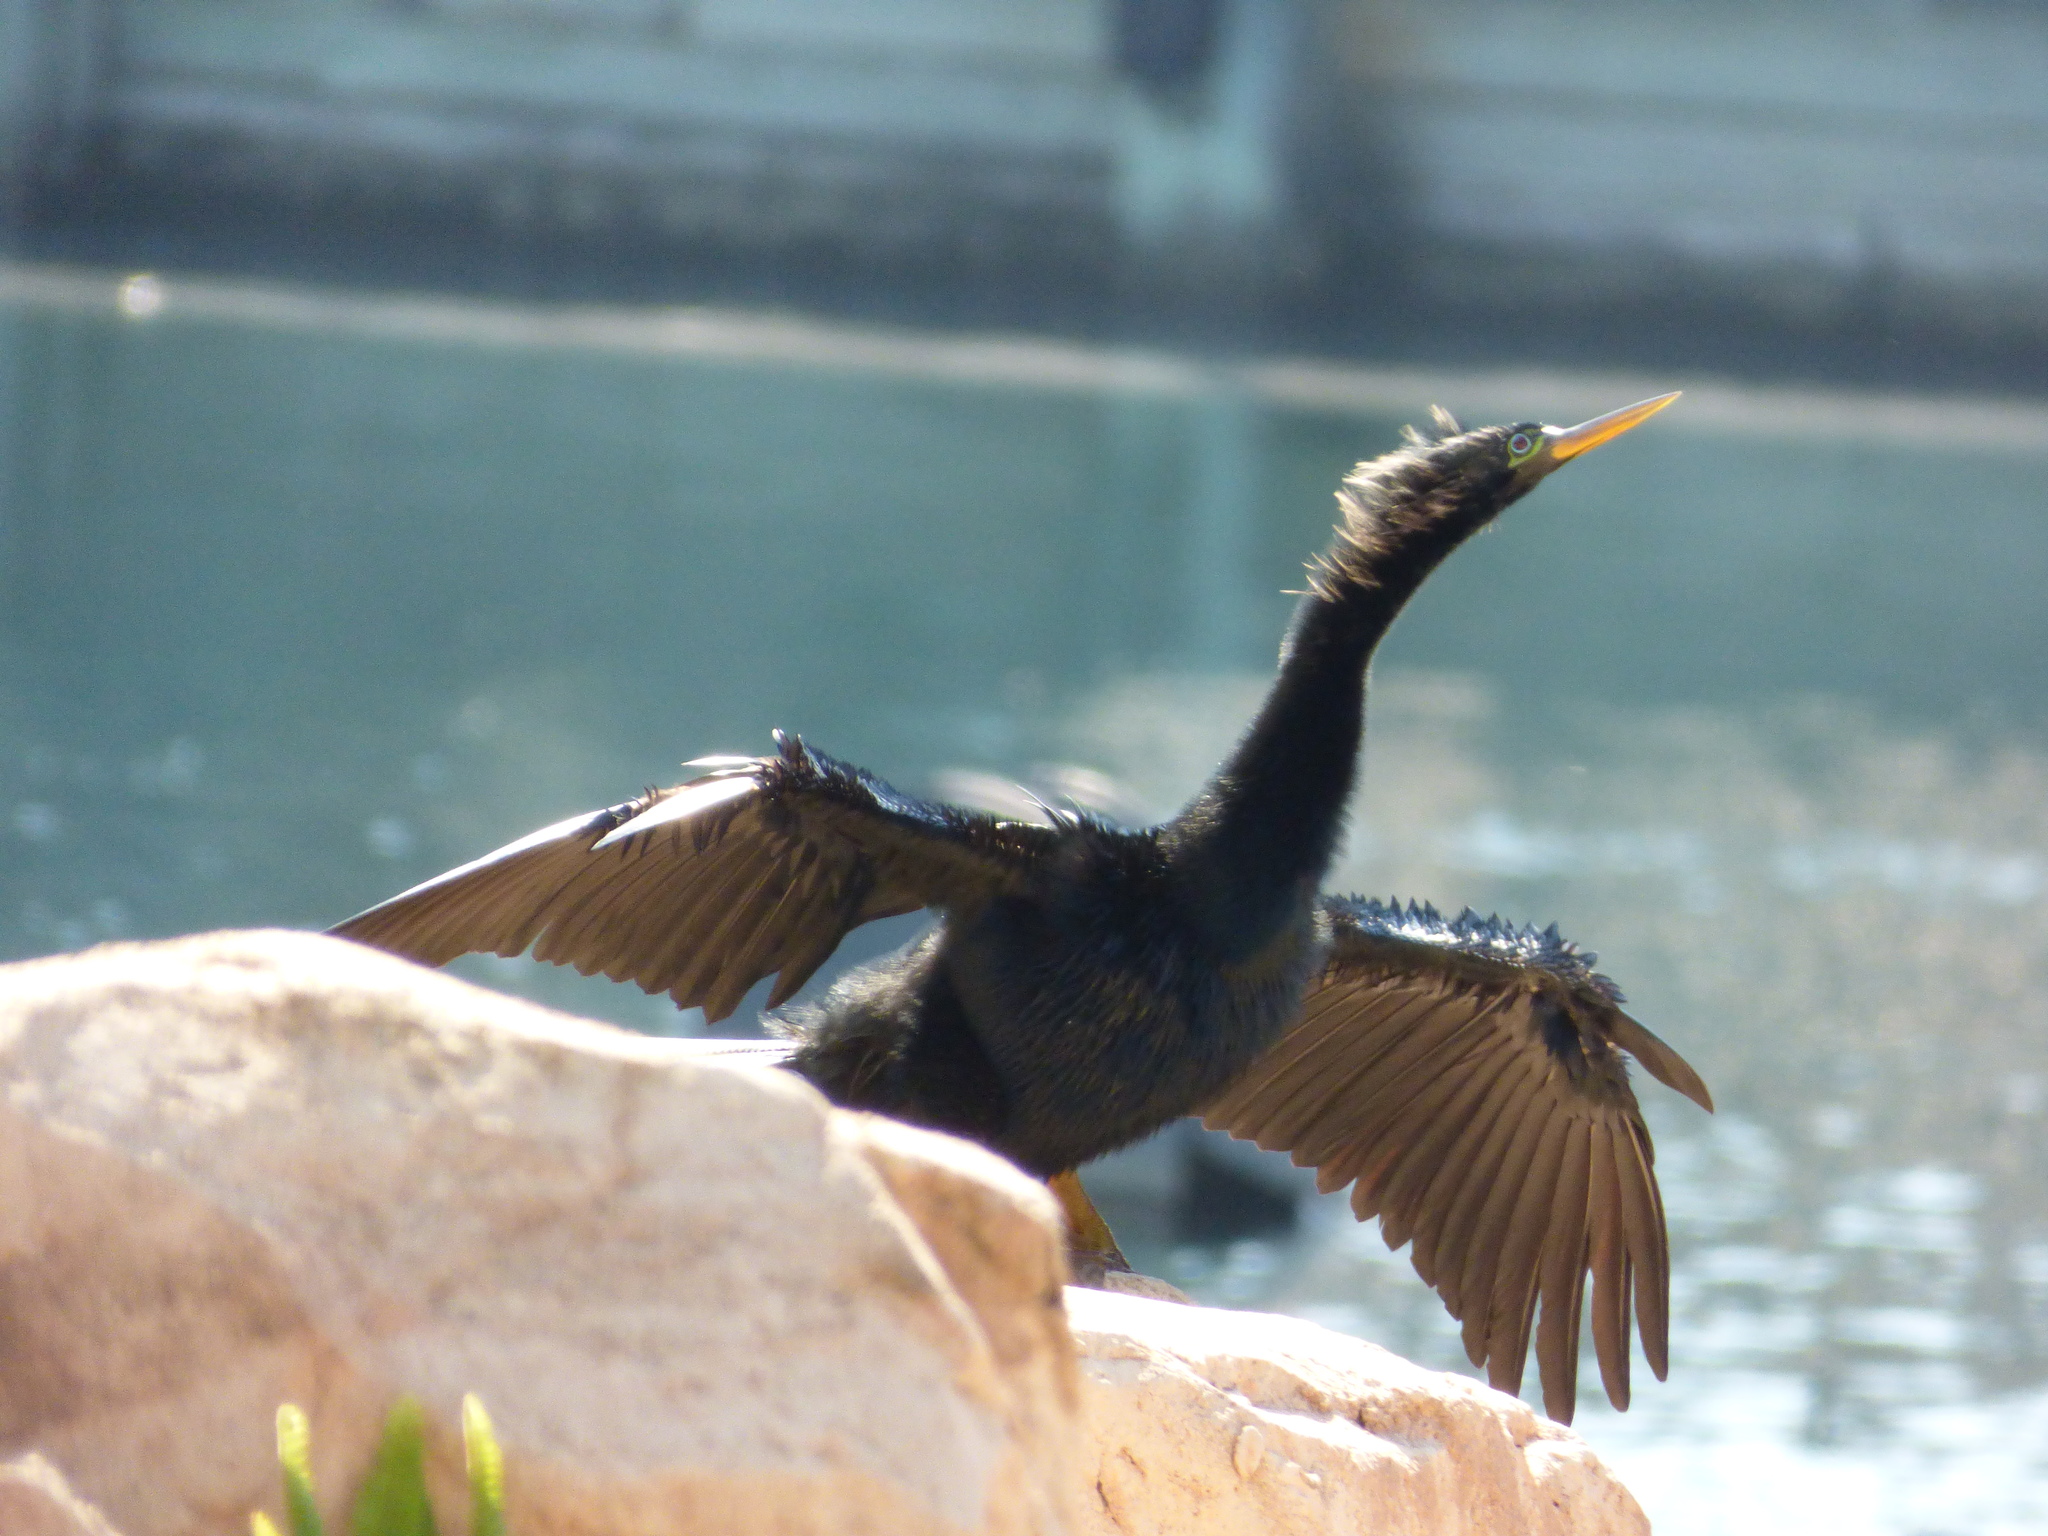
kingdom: Animalia
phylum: Chordata
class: Aves
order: Suliformes
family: Anhingidae
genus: Anhinga
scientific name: Anhinga anhinga
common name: Anhinga
